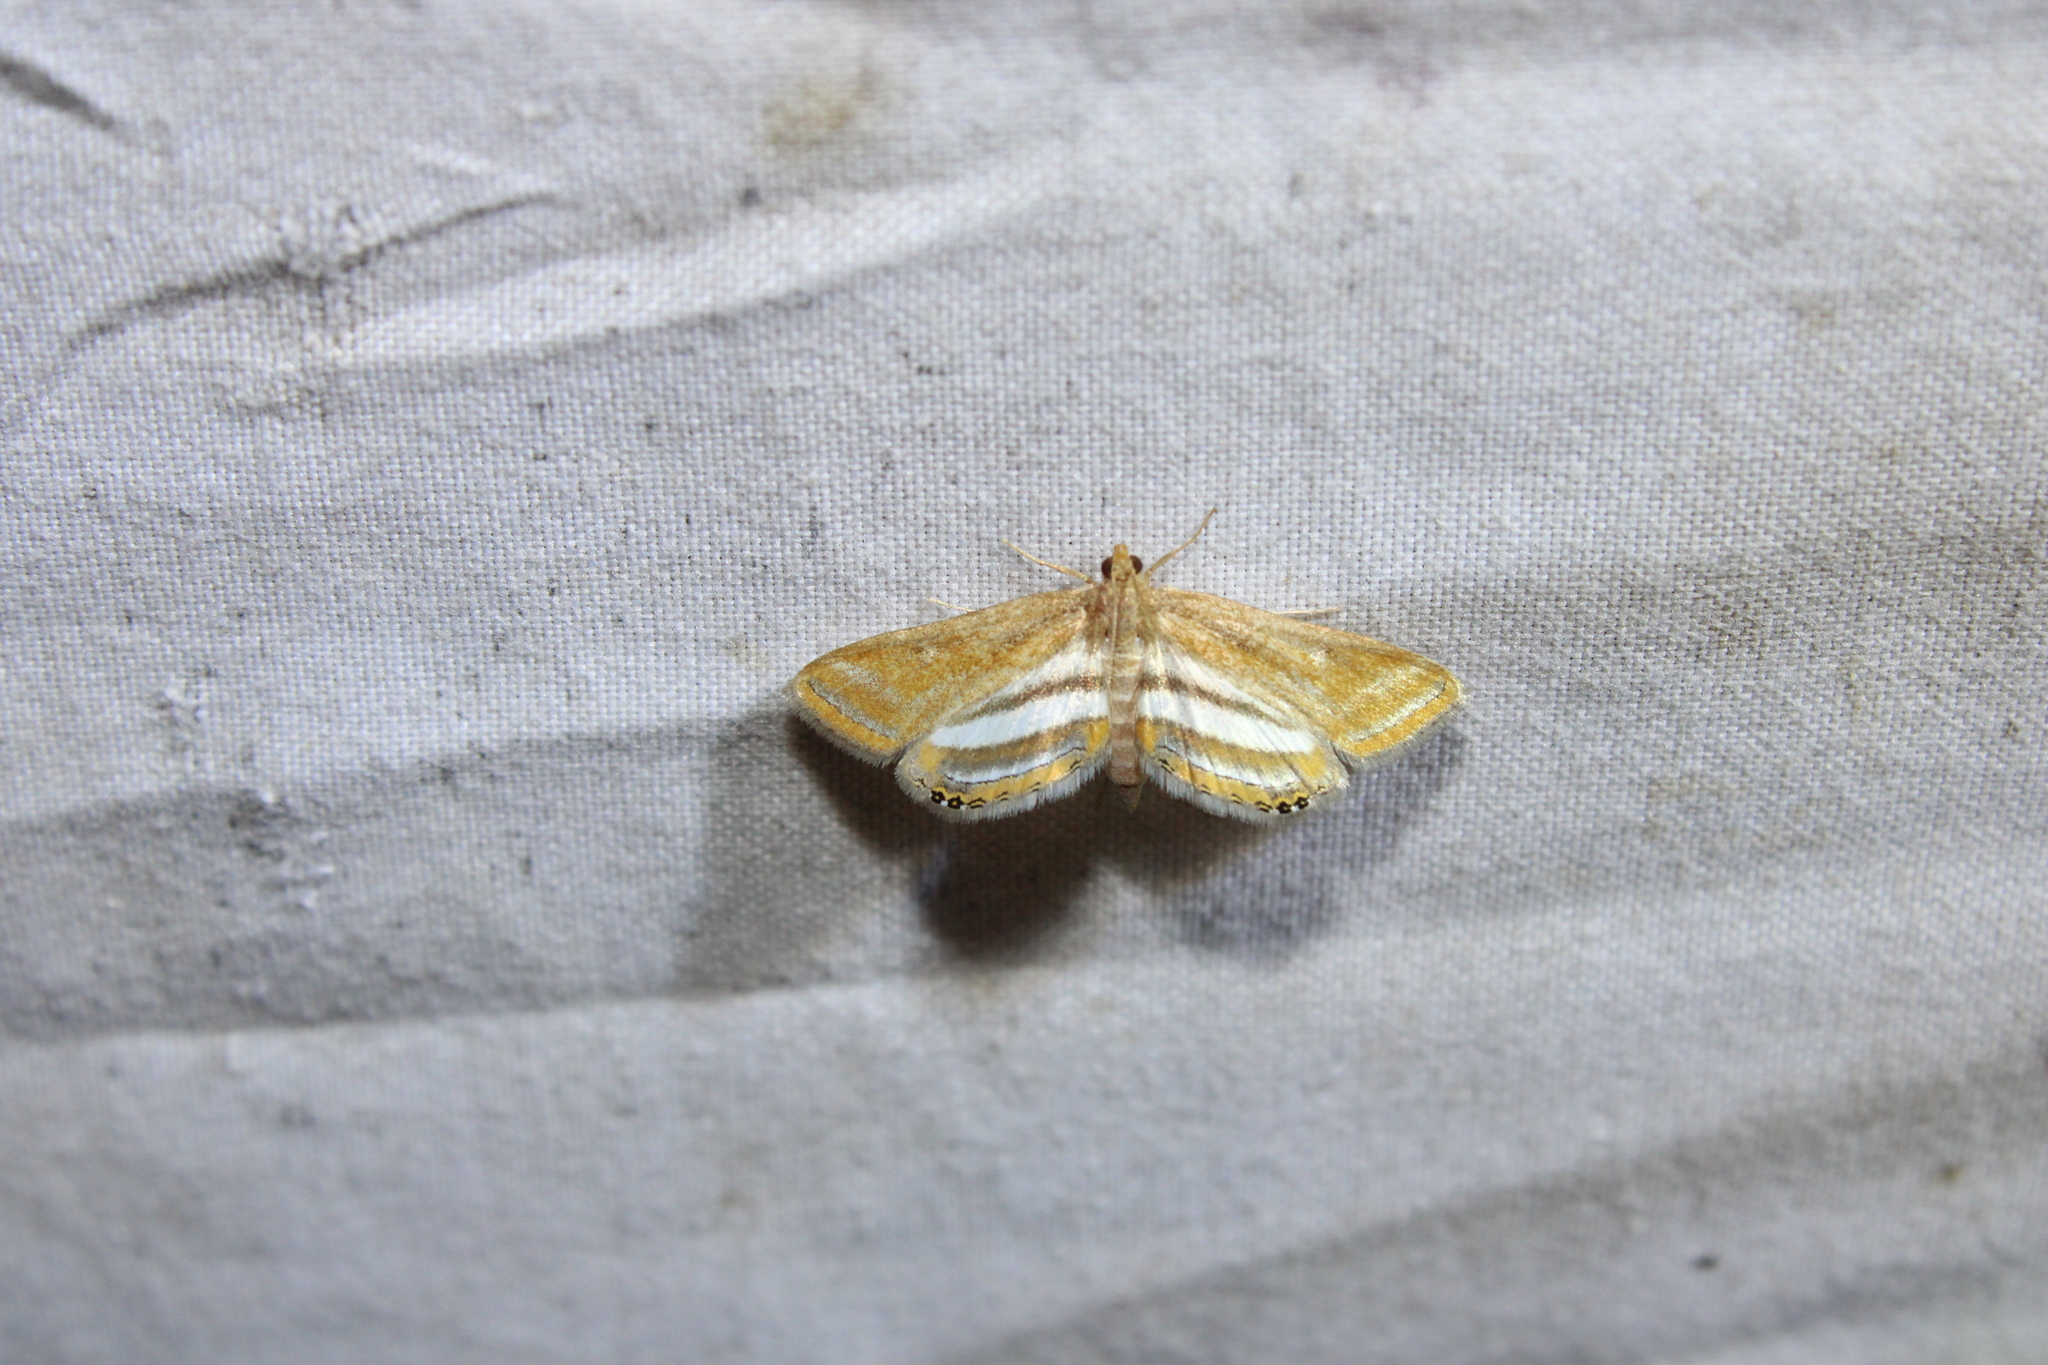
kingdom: Animalia
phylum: Arthropoda
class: Insecta
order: Lepidoptera
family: Crambidae
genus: Parapoynx
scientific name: Parapoynx seminealis
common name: Floating-heart waterlily leafcutter
